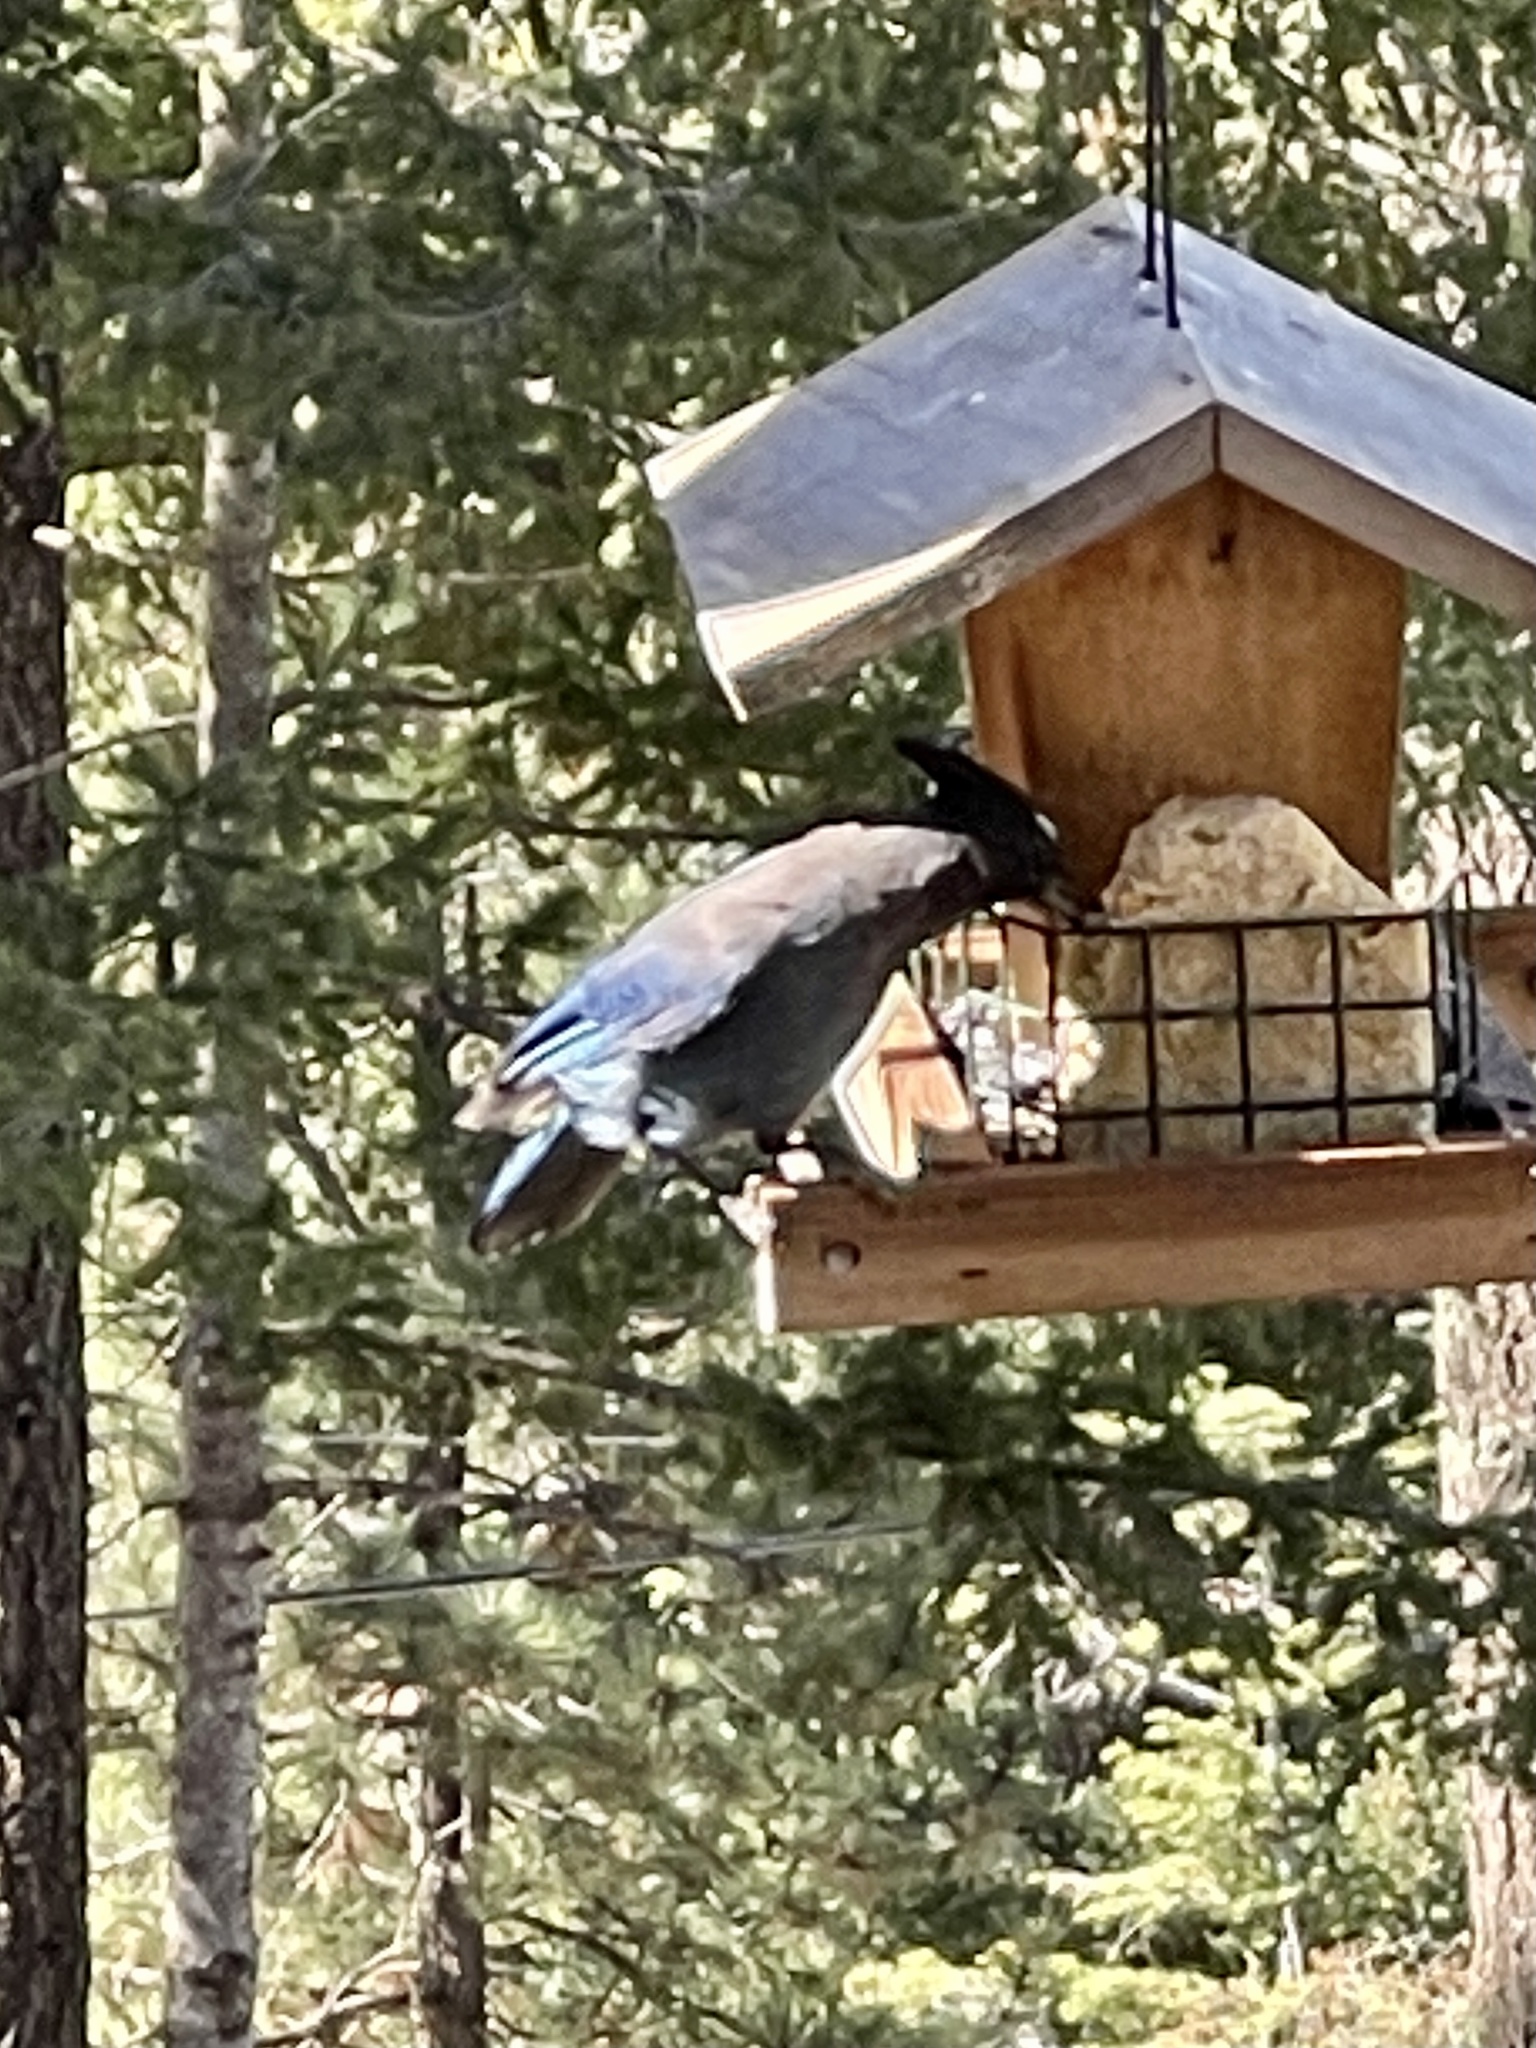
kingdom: Animalia
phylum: Chordata
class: Aves
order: Passeriformes
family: Corvidae
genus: Cyanocitta
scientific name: Cyanocitta stelleri
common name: Steller's jay
